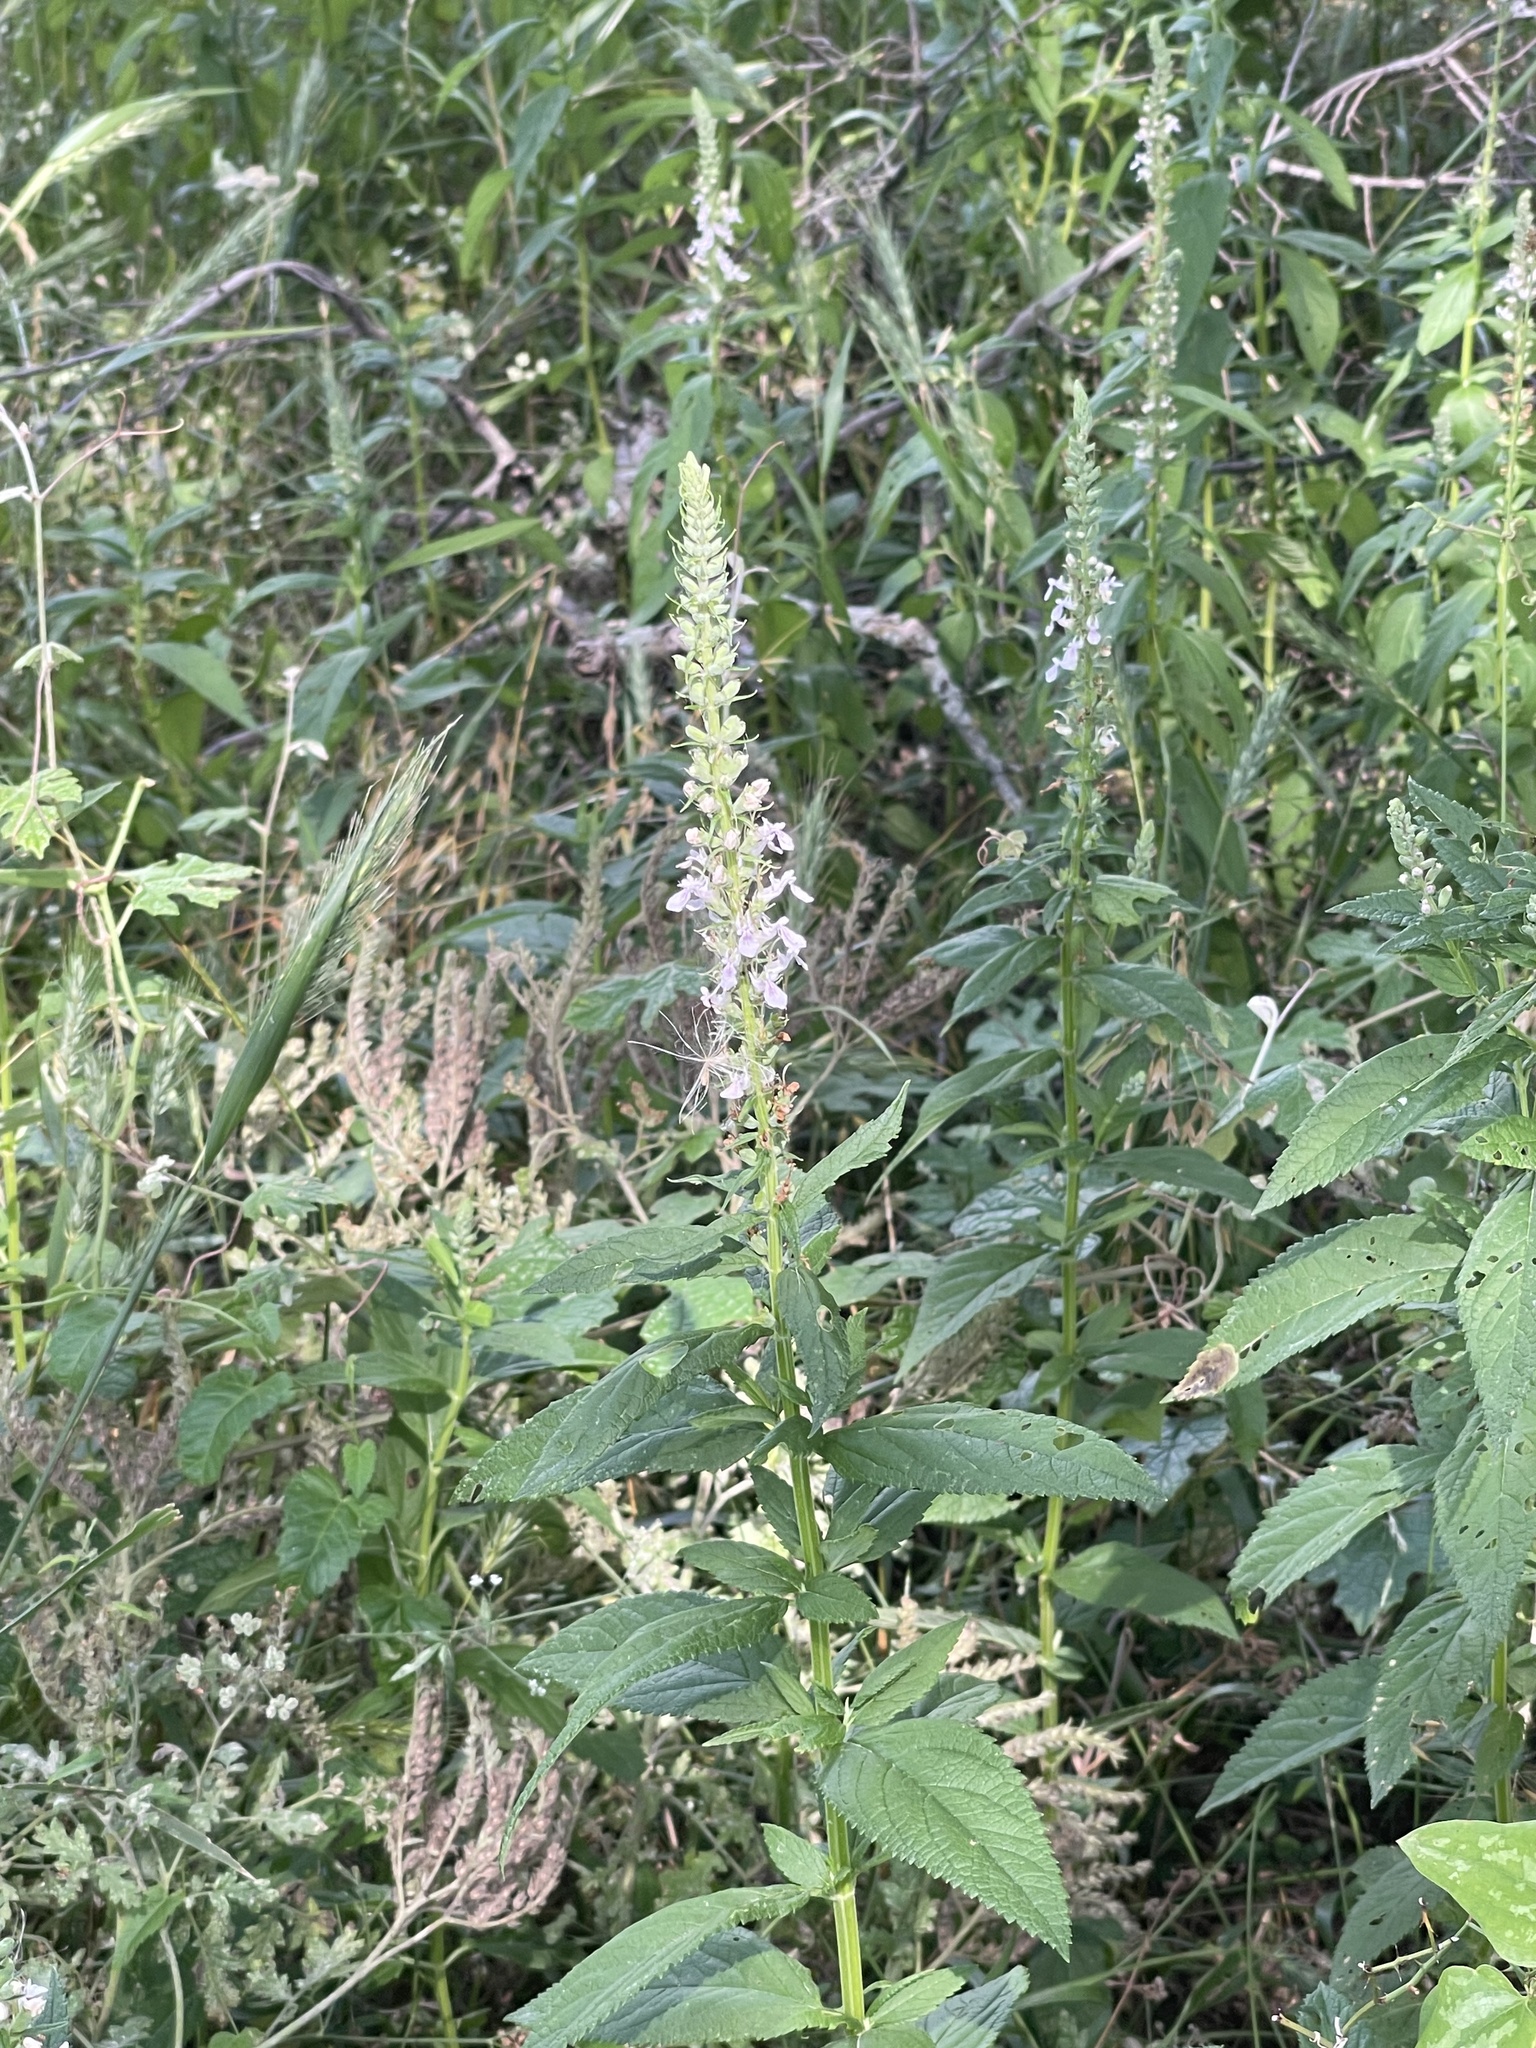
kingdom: Plantae
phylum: Tracheophyta
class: Magnoliopsida
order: Lamiales
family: Lamiaceae
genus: Teucrium
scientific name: Teucrium canadense
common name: American germander
